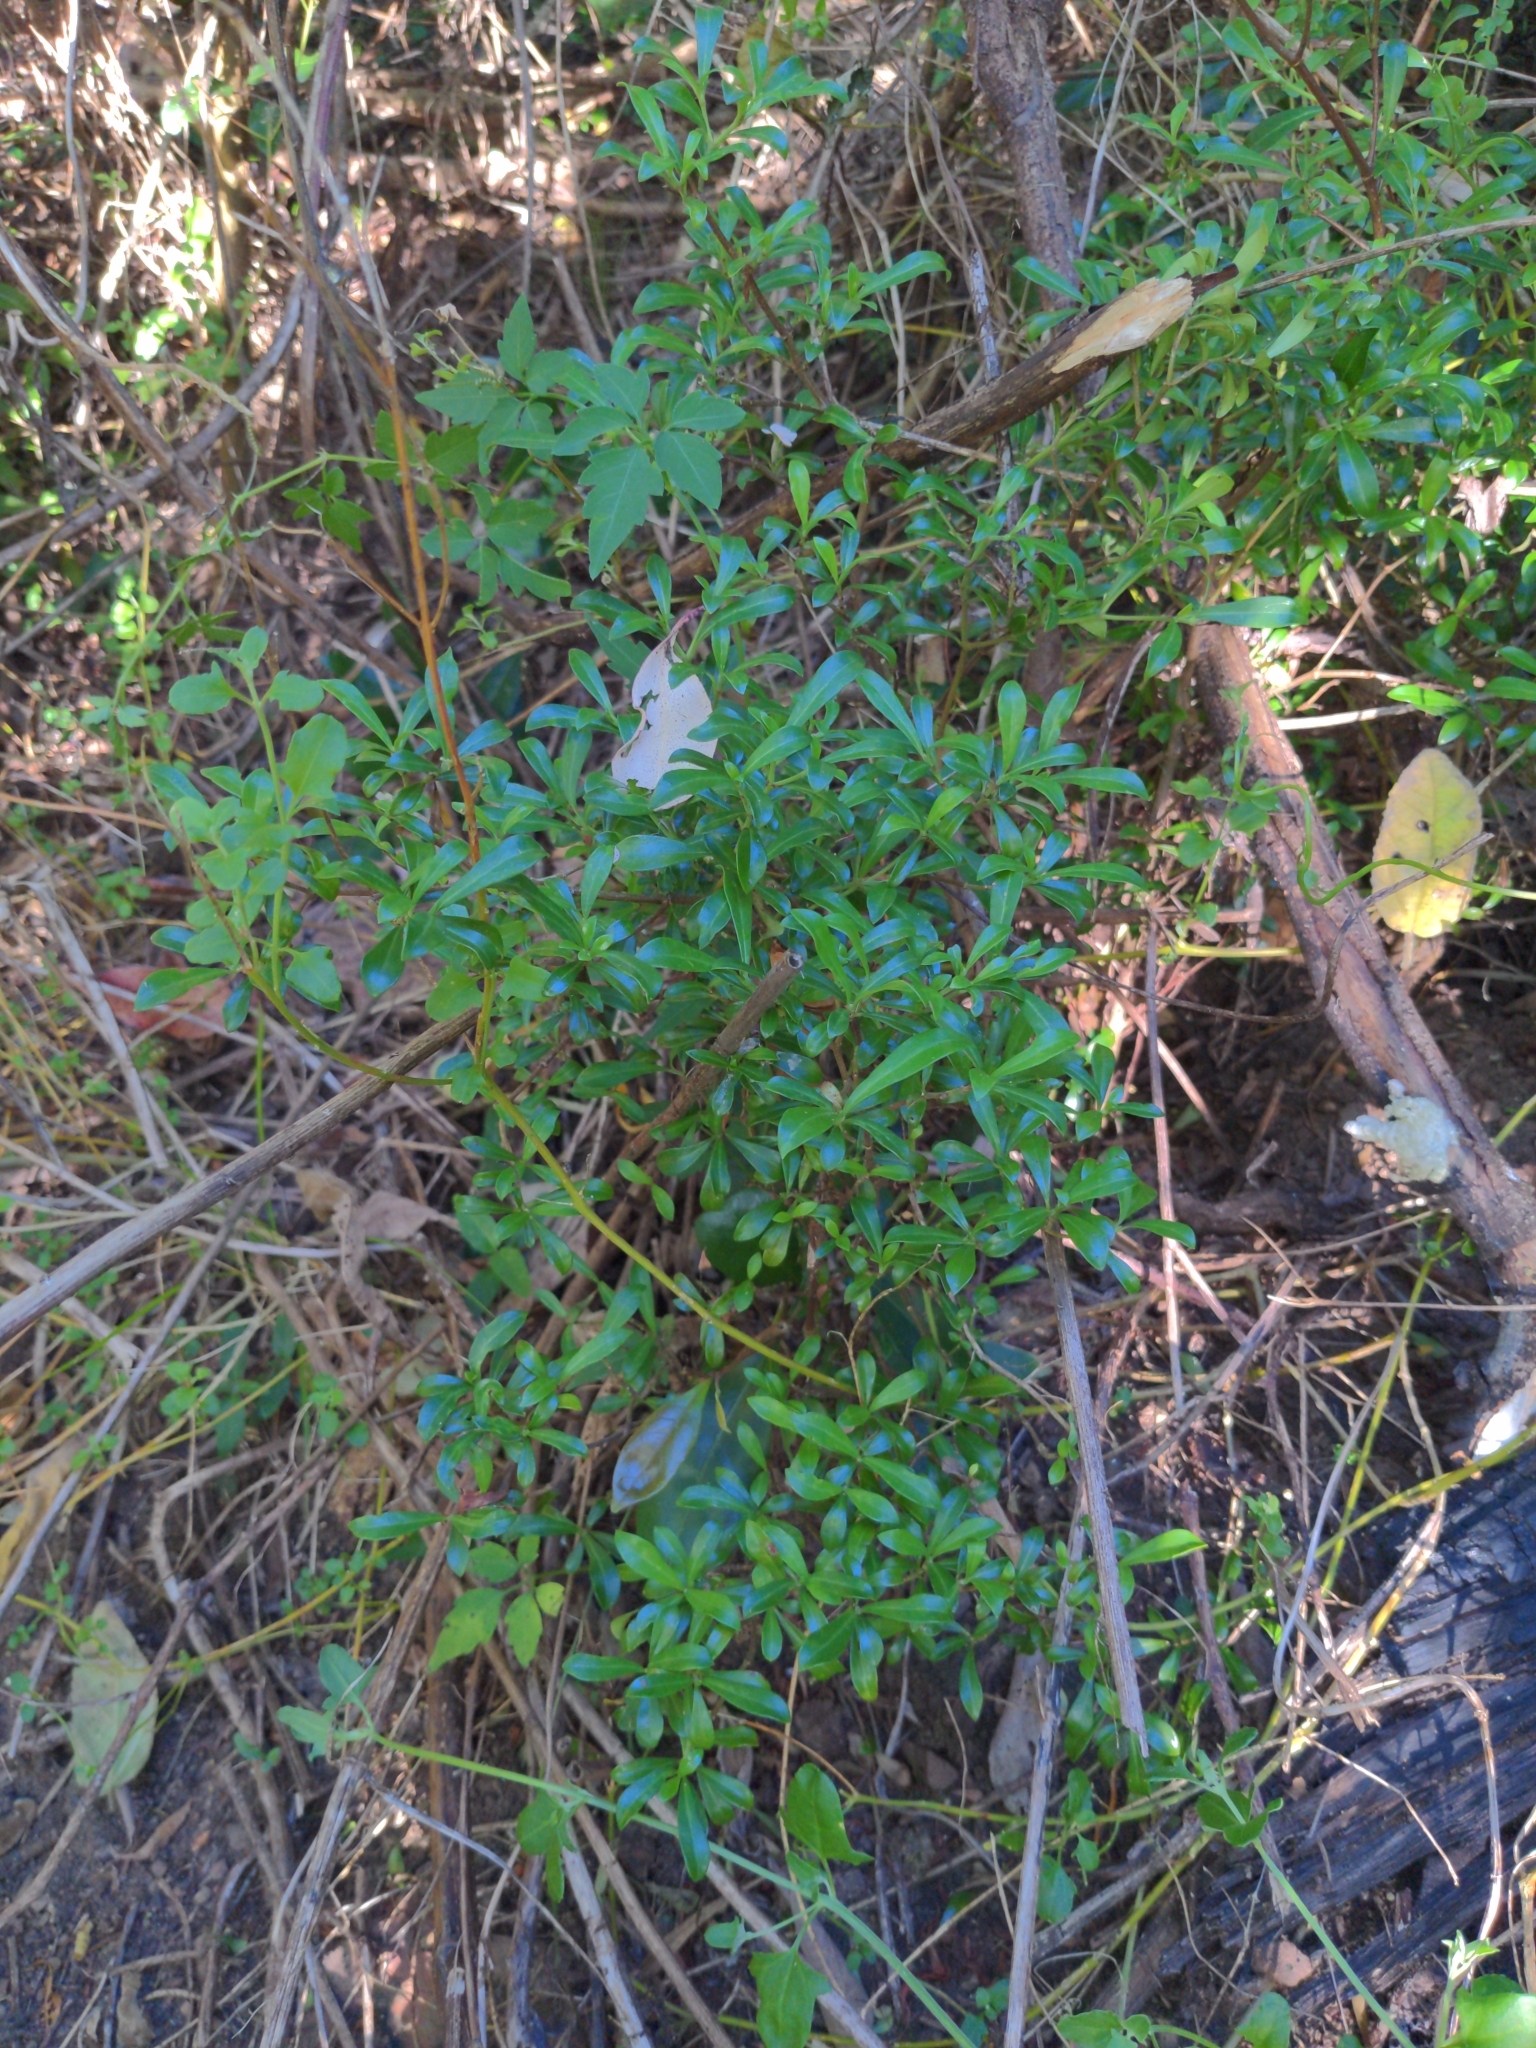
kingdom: Plantae
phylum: Tracheophyta
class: Magnoliopsida
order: Gentianales
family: Rubiaceae
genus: Psychotria
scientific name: Psychotria daphnoides
